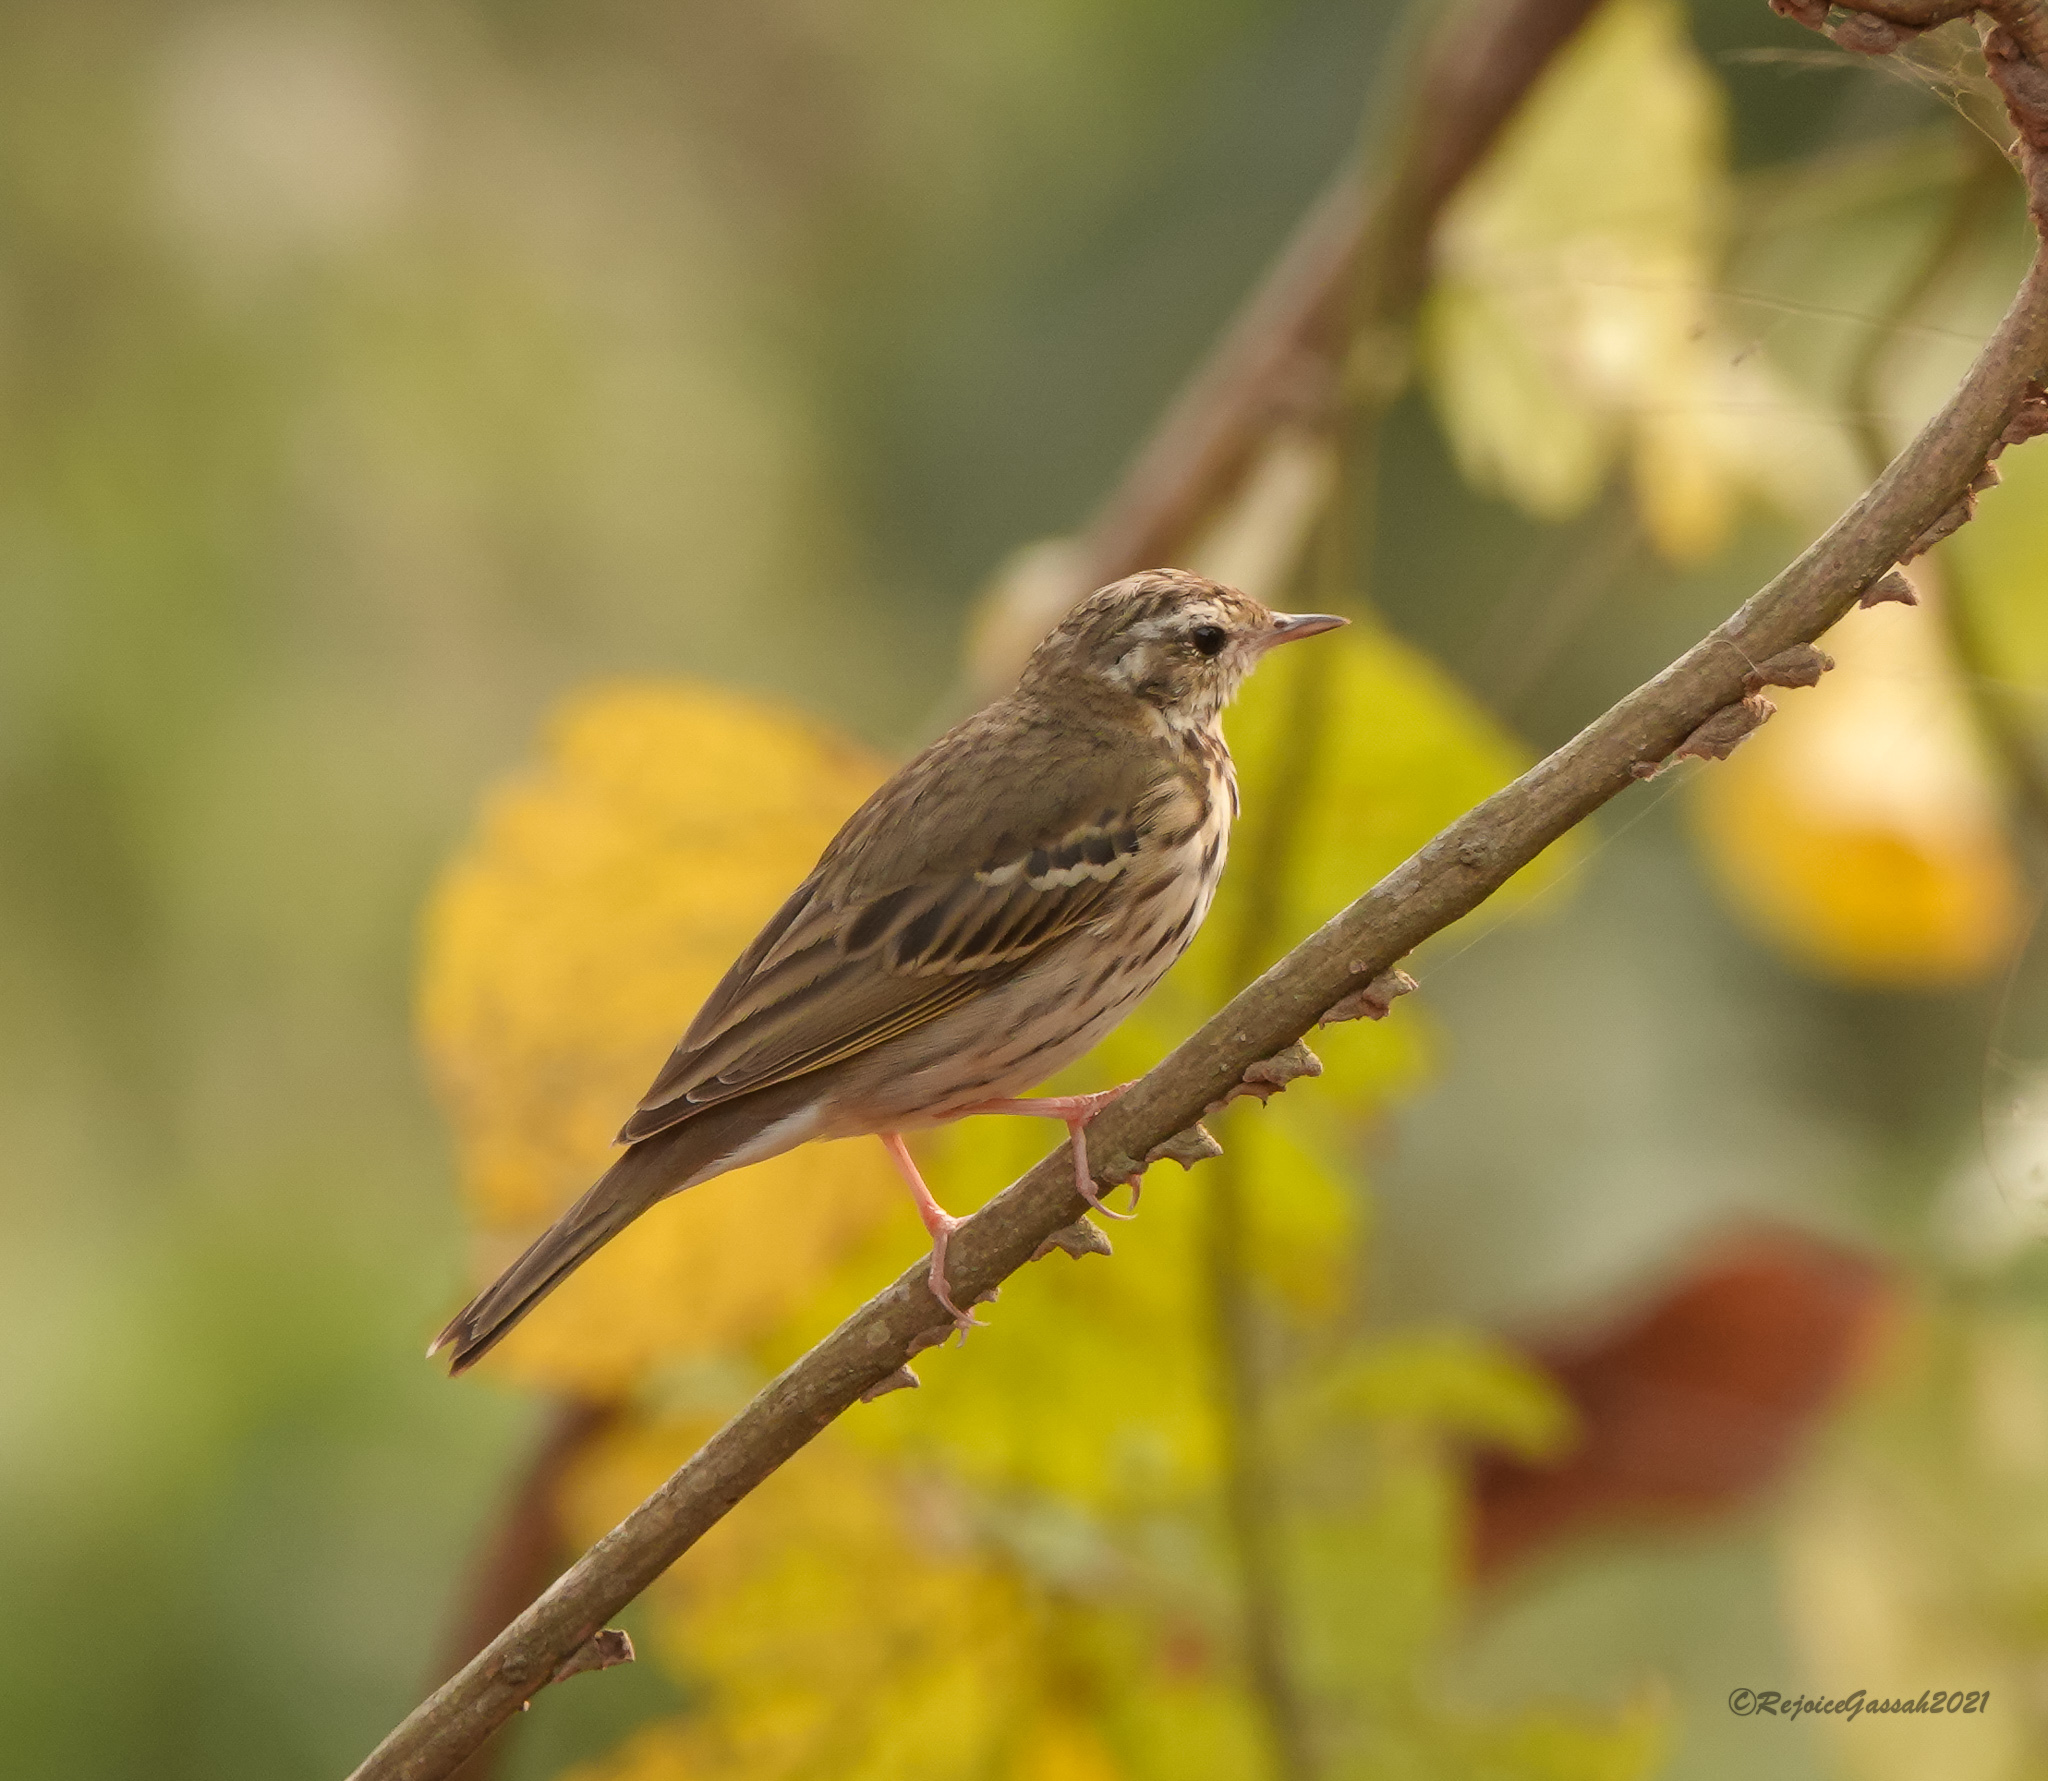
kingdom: Animalia
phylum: Chordata
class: Aves
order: Passeriformes
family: Motacillidae
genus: Anthus
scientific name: Anthus hodgsoni
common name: Olive-backed pipit
